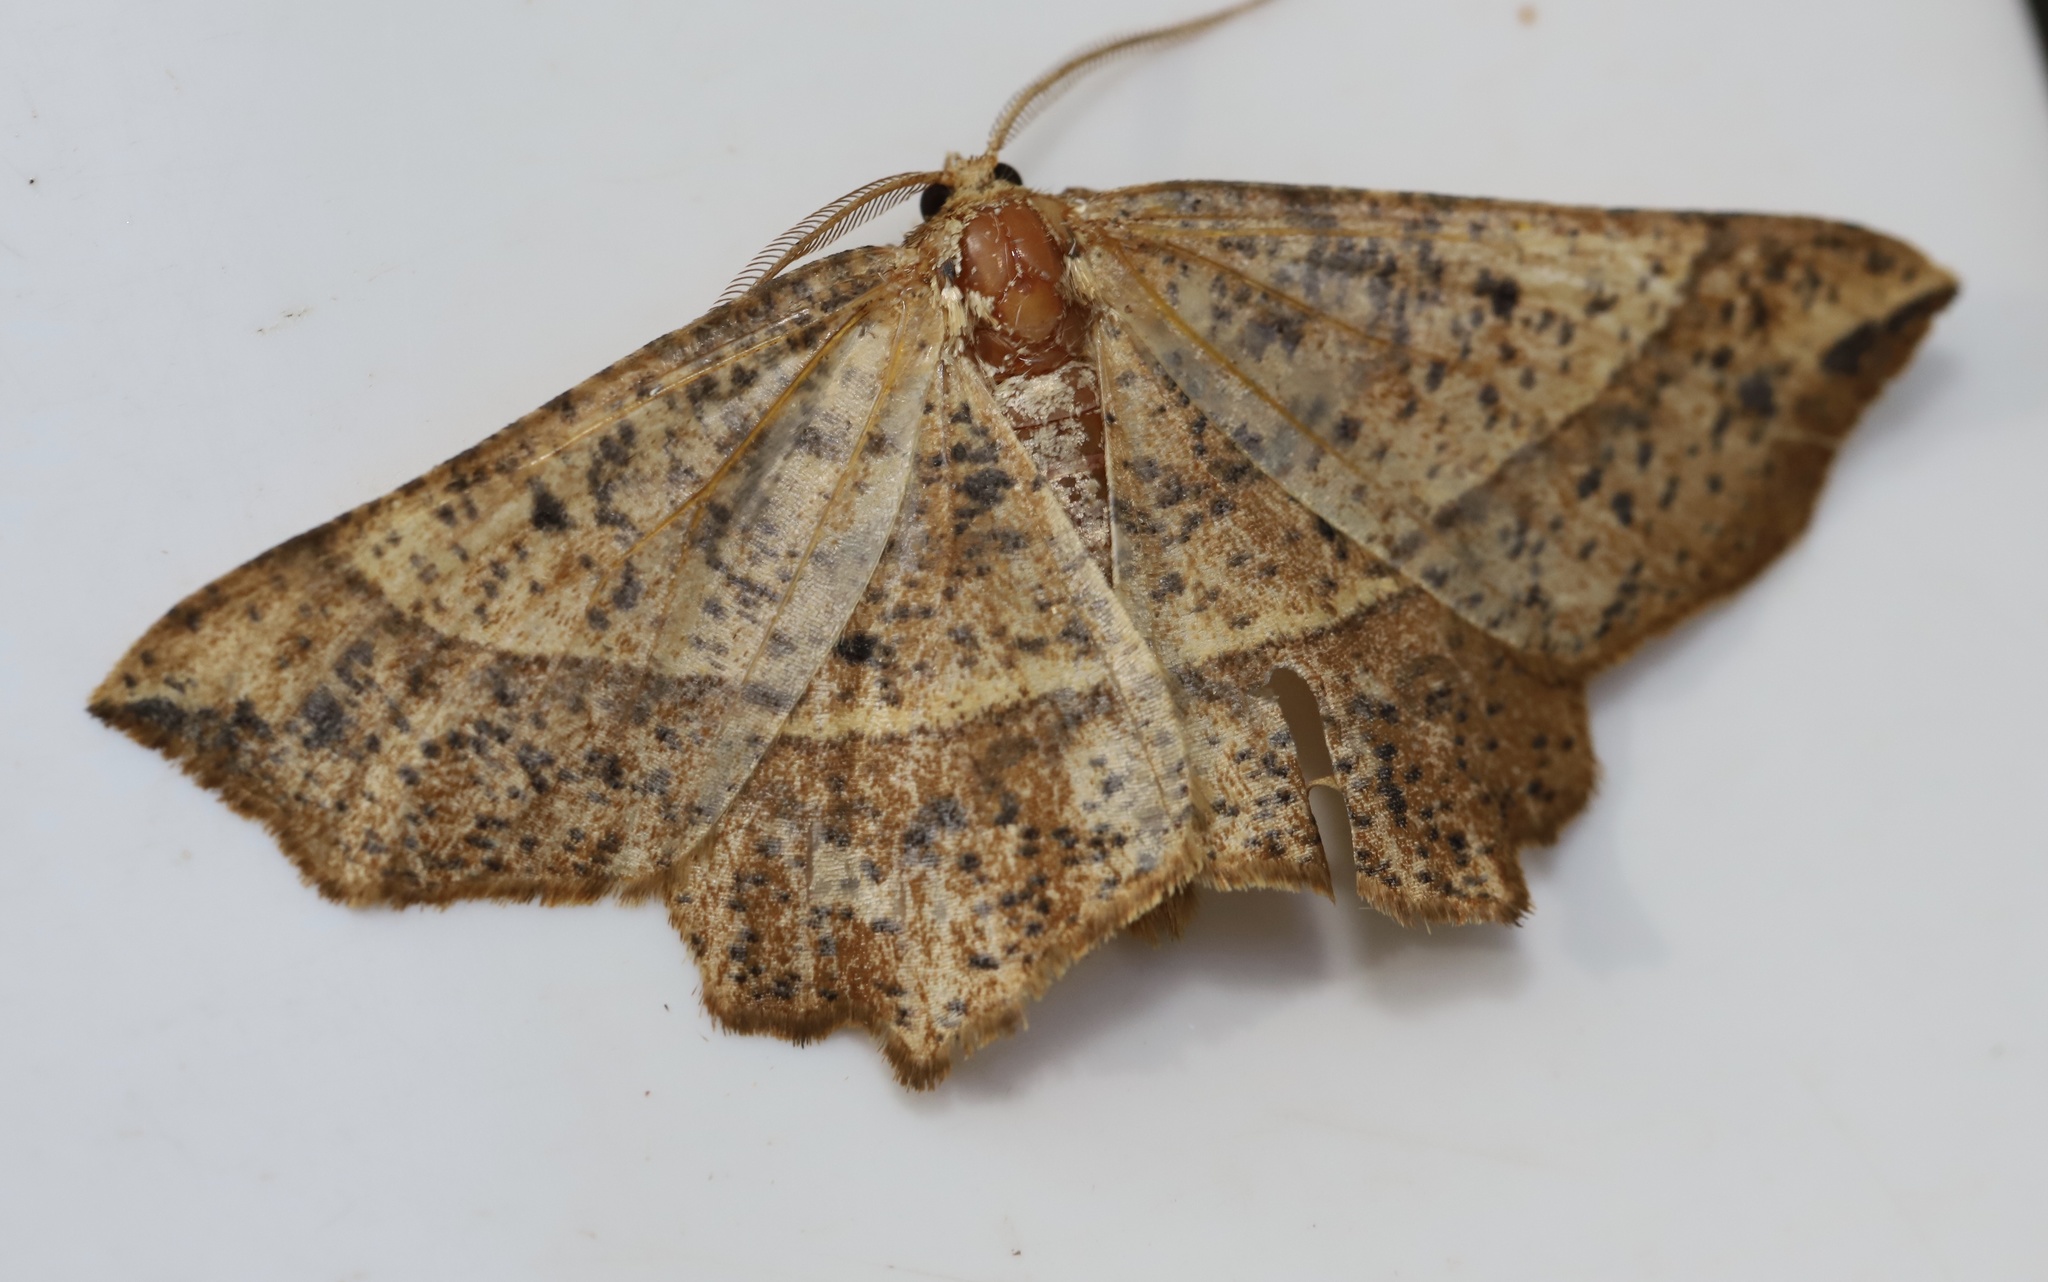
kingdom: Animalia
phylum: Arthropoda
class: Insecta
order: Lepidoptera
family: Geometridae
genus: Euchlaena
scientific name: Euchlaena tigrinaria
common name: Mottled euchlaena moth
